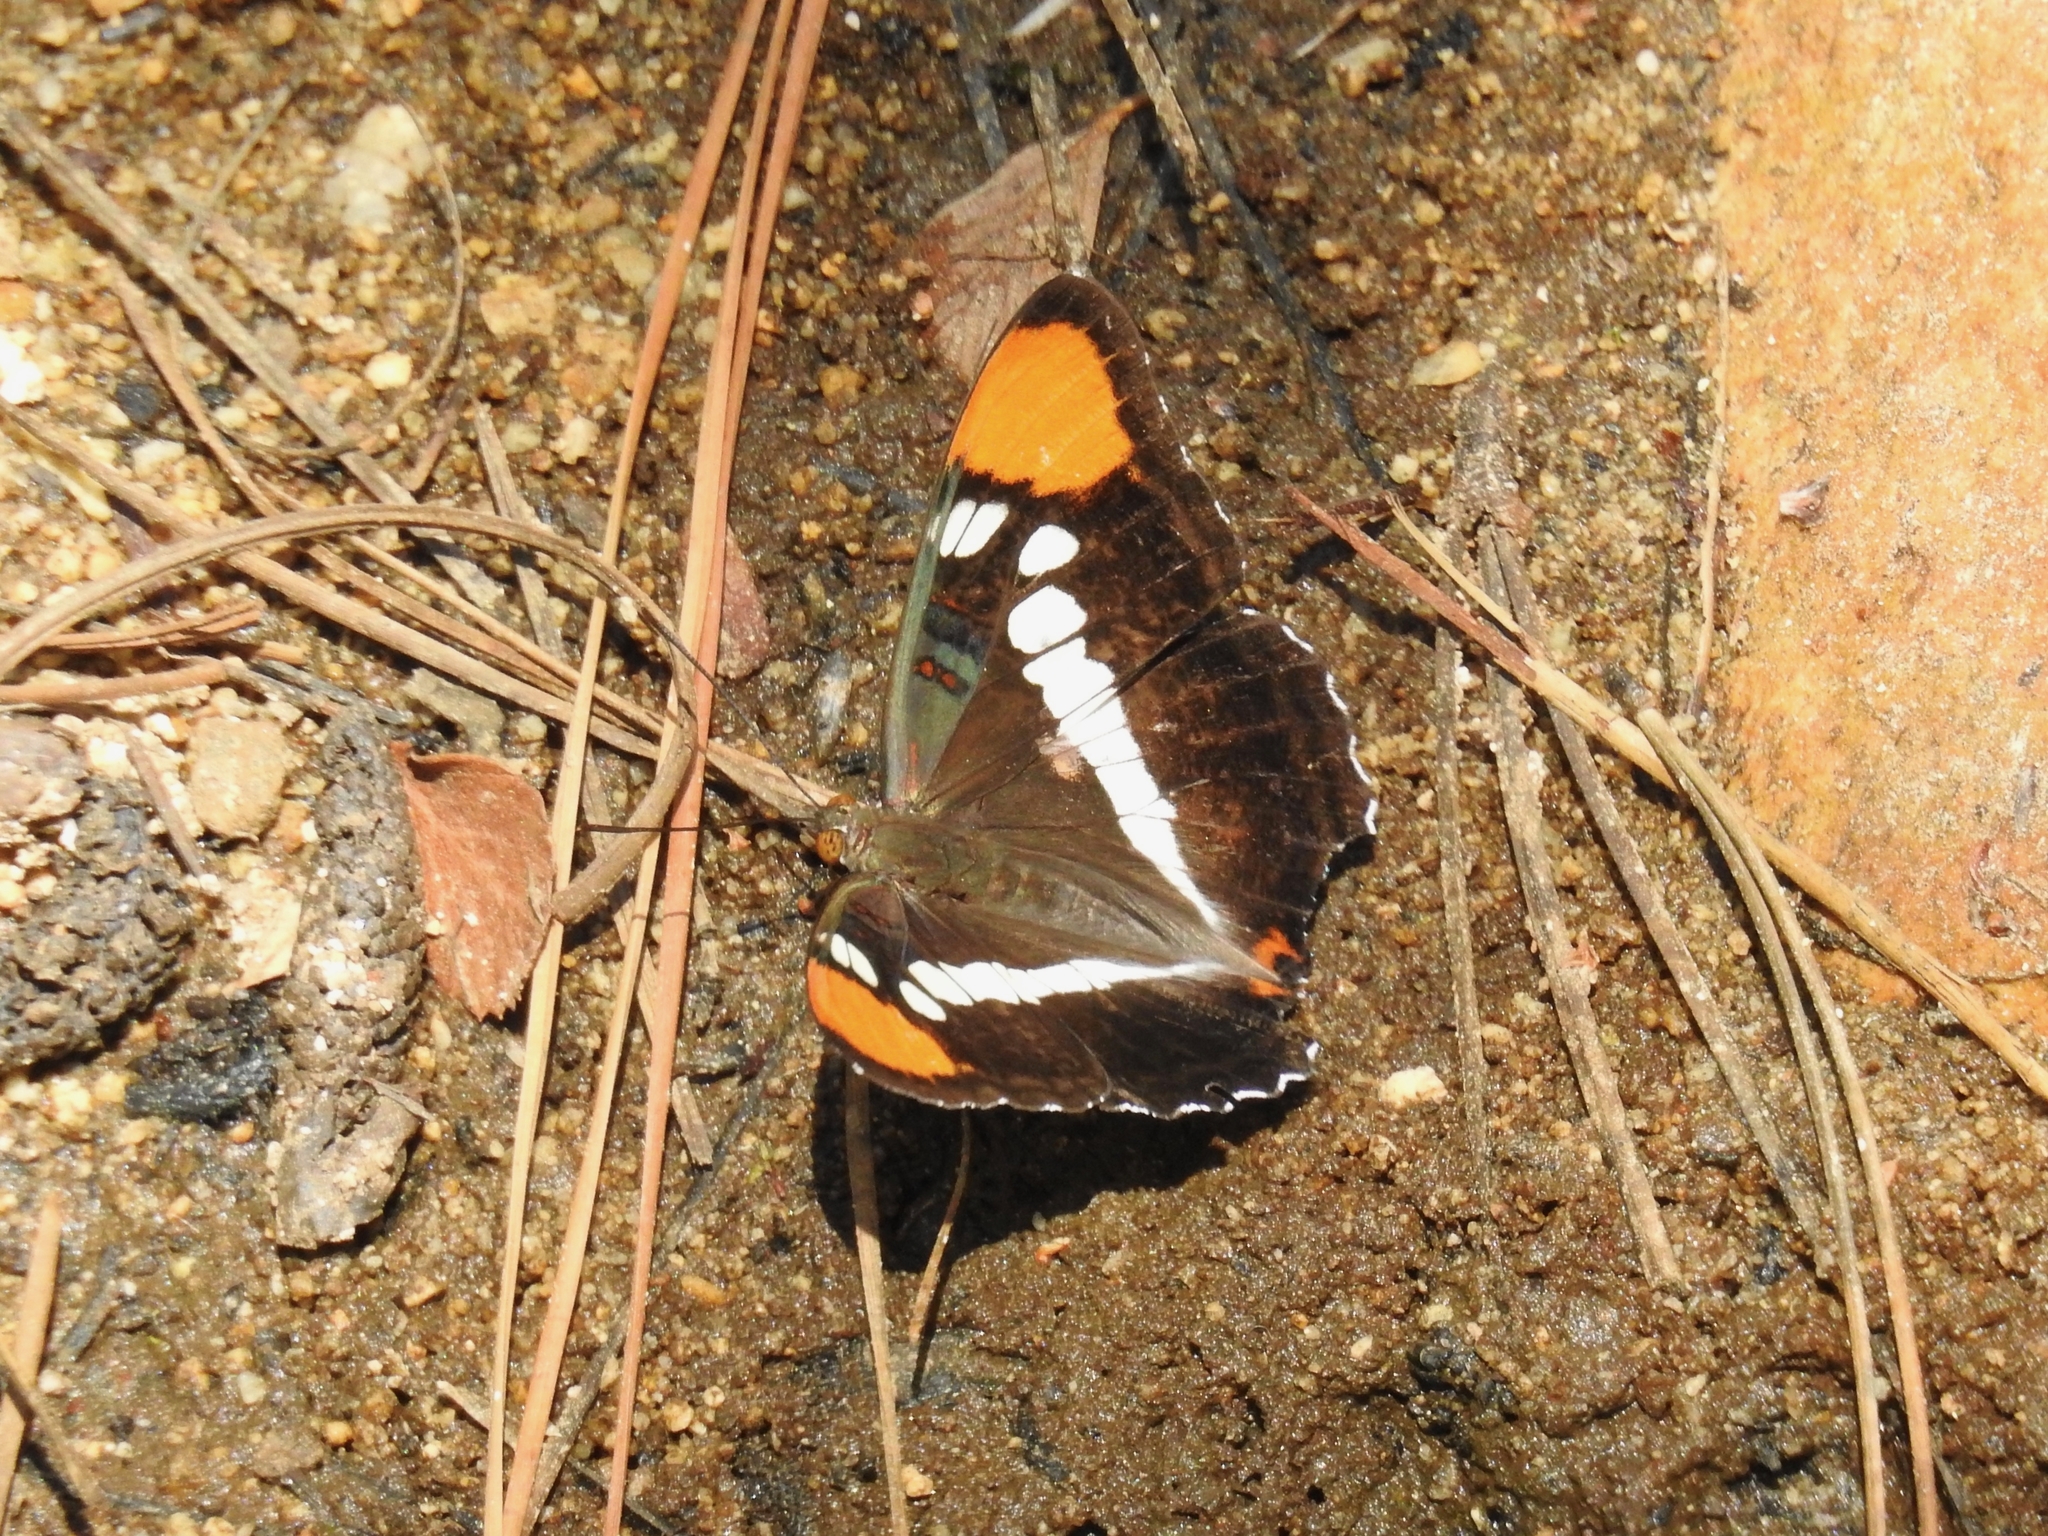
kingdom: Animalia
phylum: Arthropoda
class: Insecta
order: Lepidoptera
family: Nymphalidae
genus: Limenitis
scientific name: Limenitis bredowii
